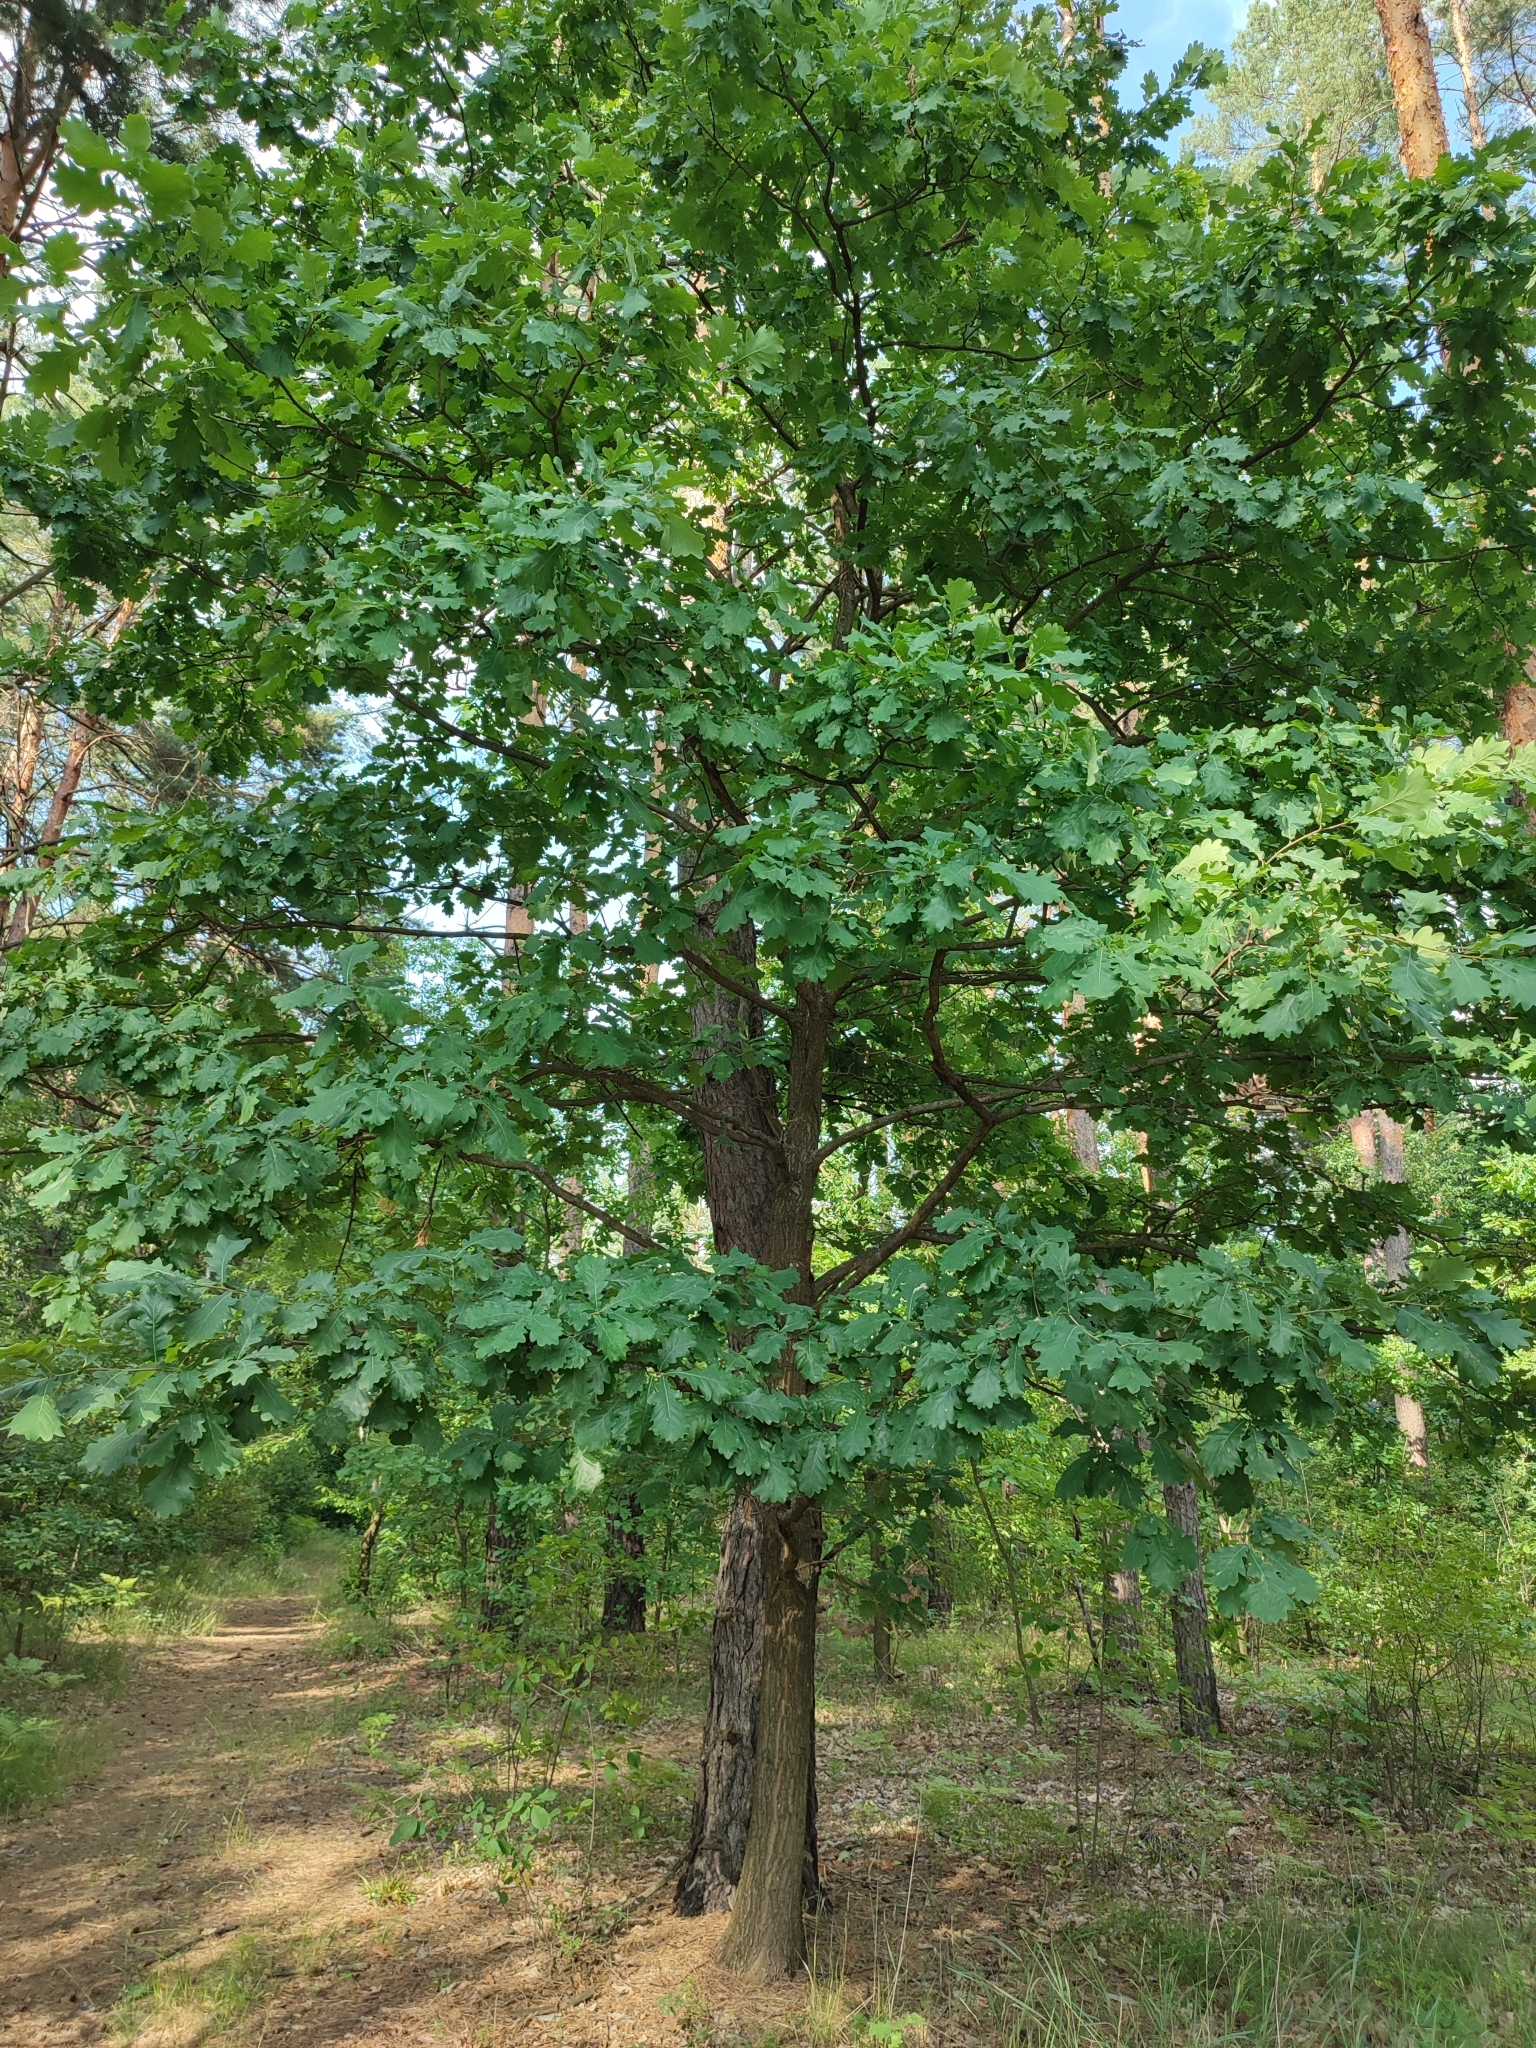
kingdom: Plantae
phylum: Tracheophyta
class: Magnoliopsida
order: Fagales
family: Fagaceae
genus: Quercus
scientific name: Quercus robur
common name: Pedunculate oak
